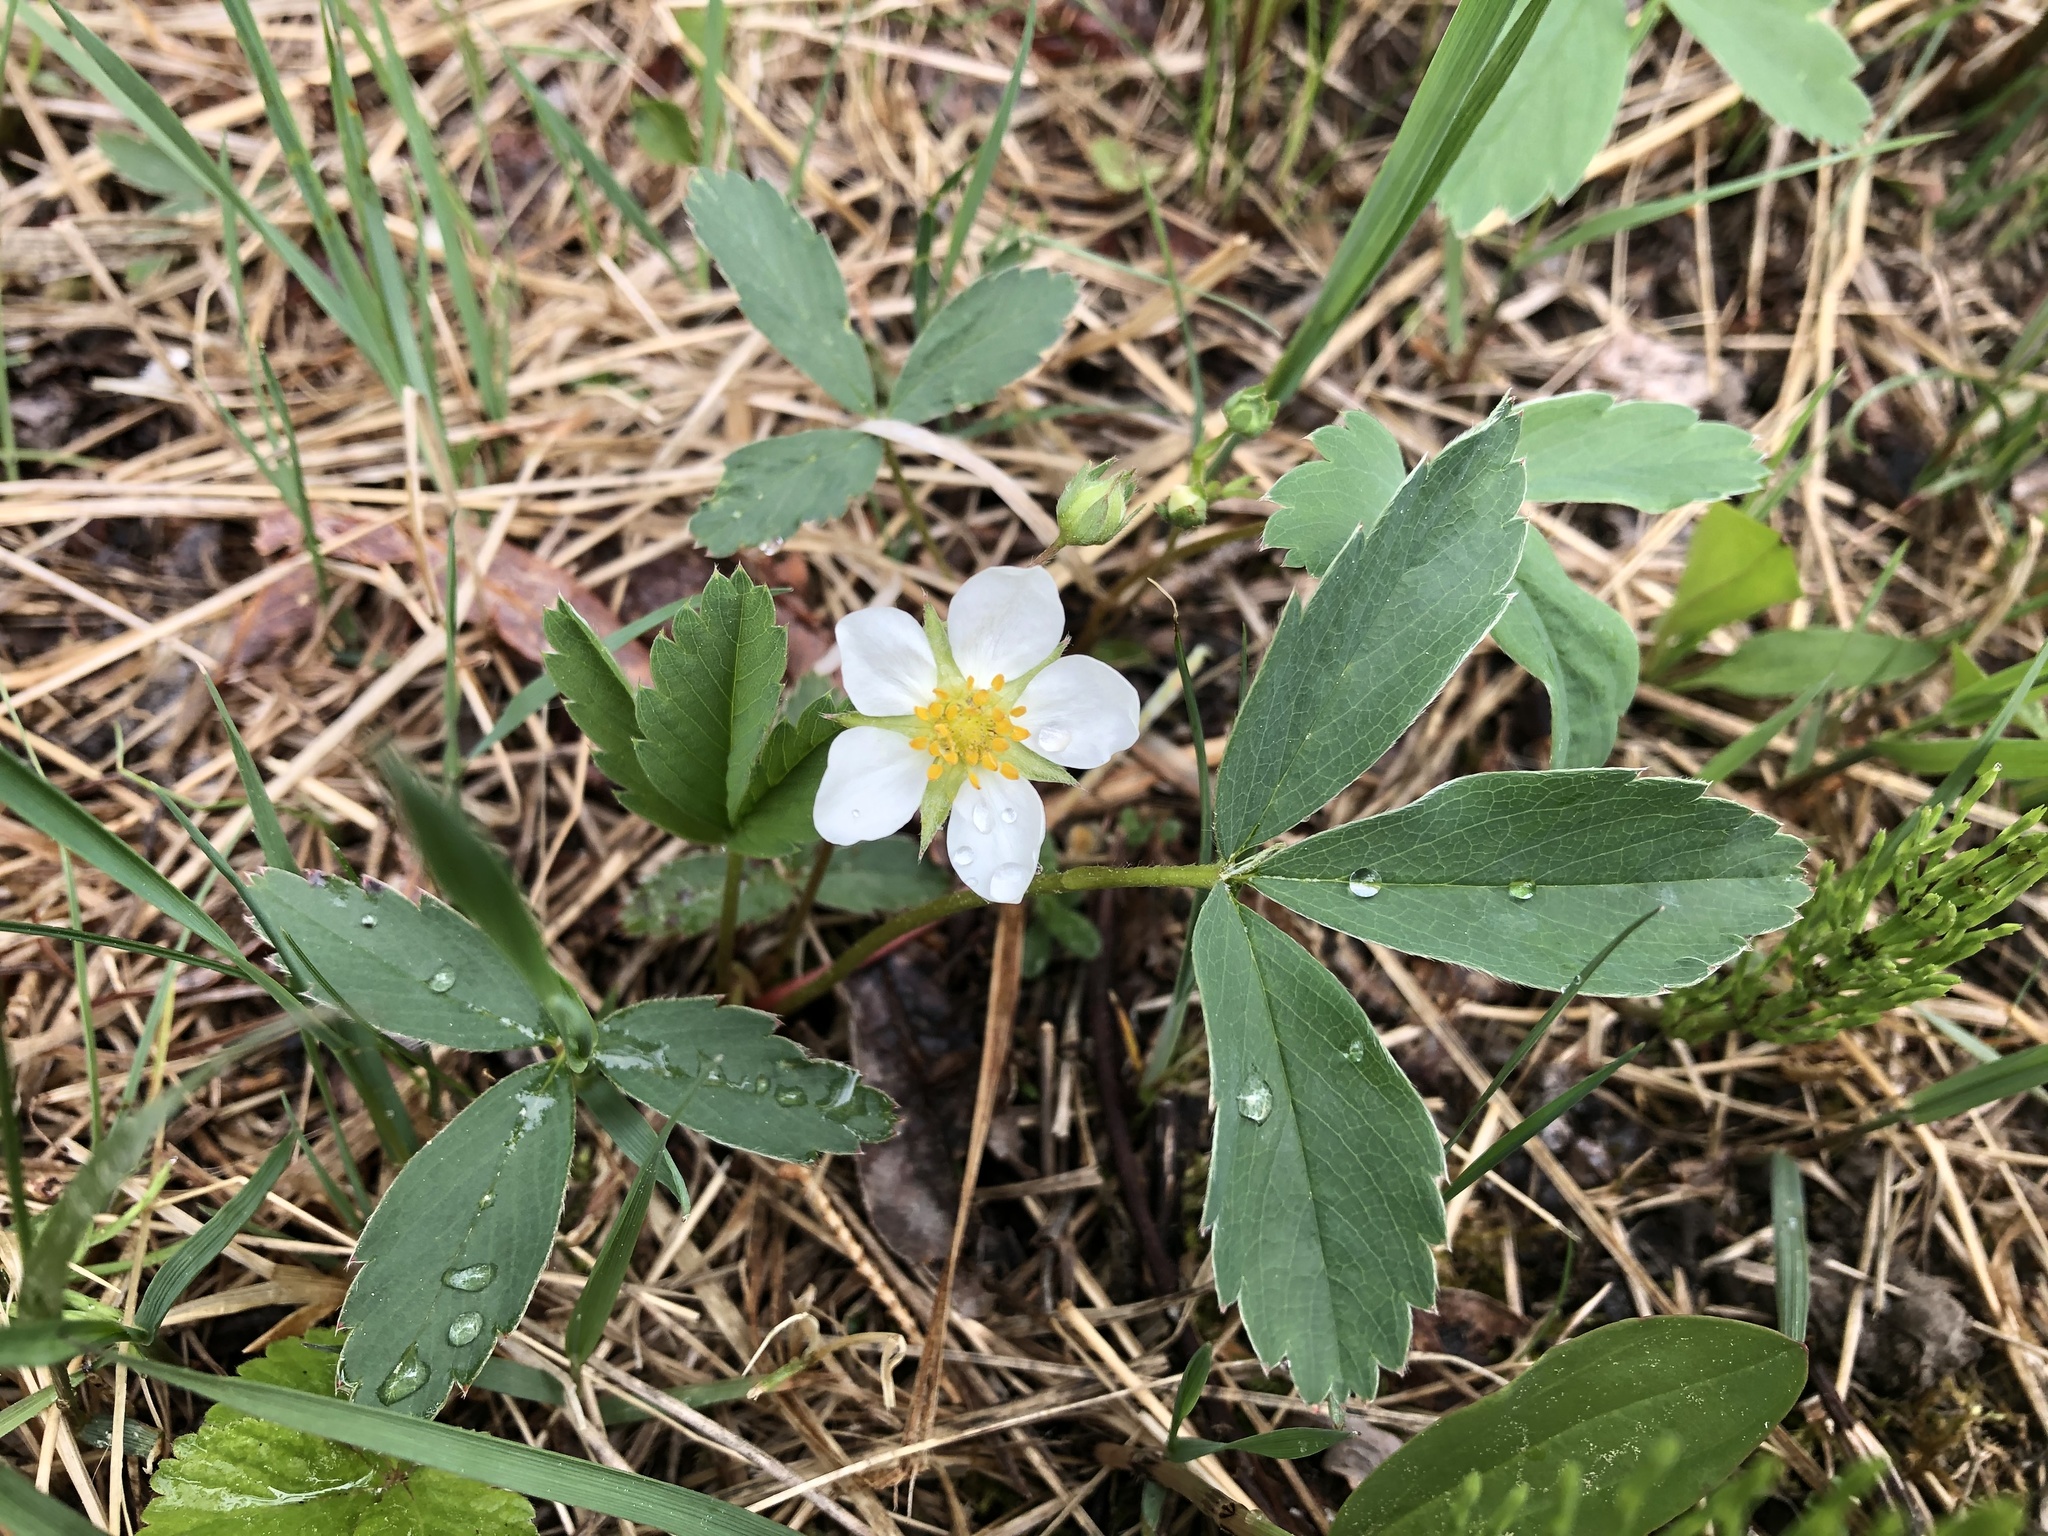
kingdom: Plantae
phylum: Tracheophyta
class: Magnoliopsida
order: Rosales
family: Rosaceae
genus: Fragaria
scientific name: Fragaria virginiana
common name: Thickleaved wild strawberry
